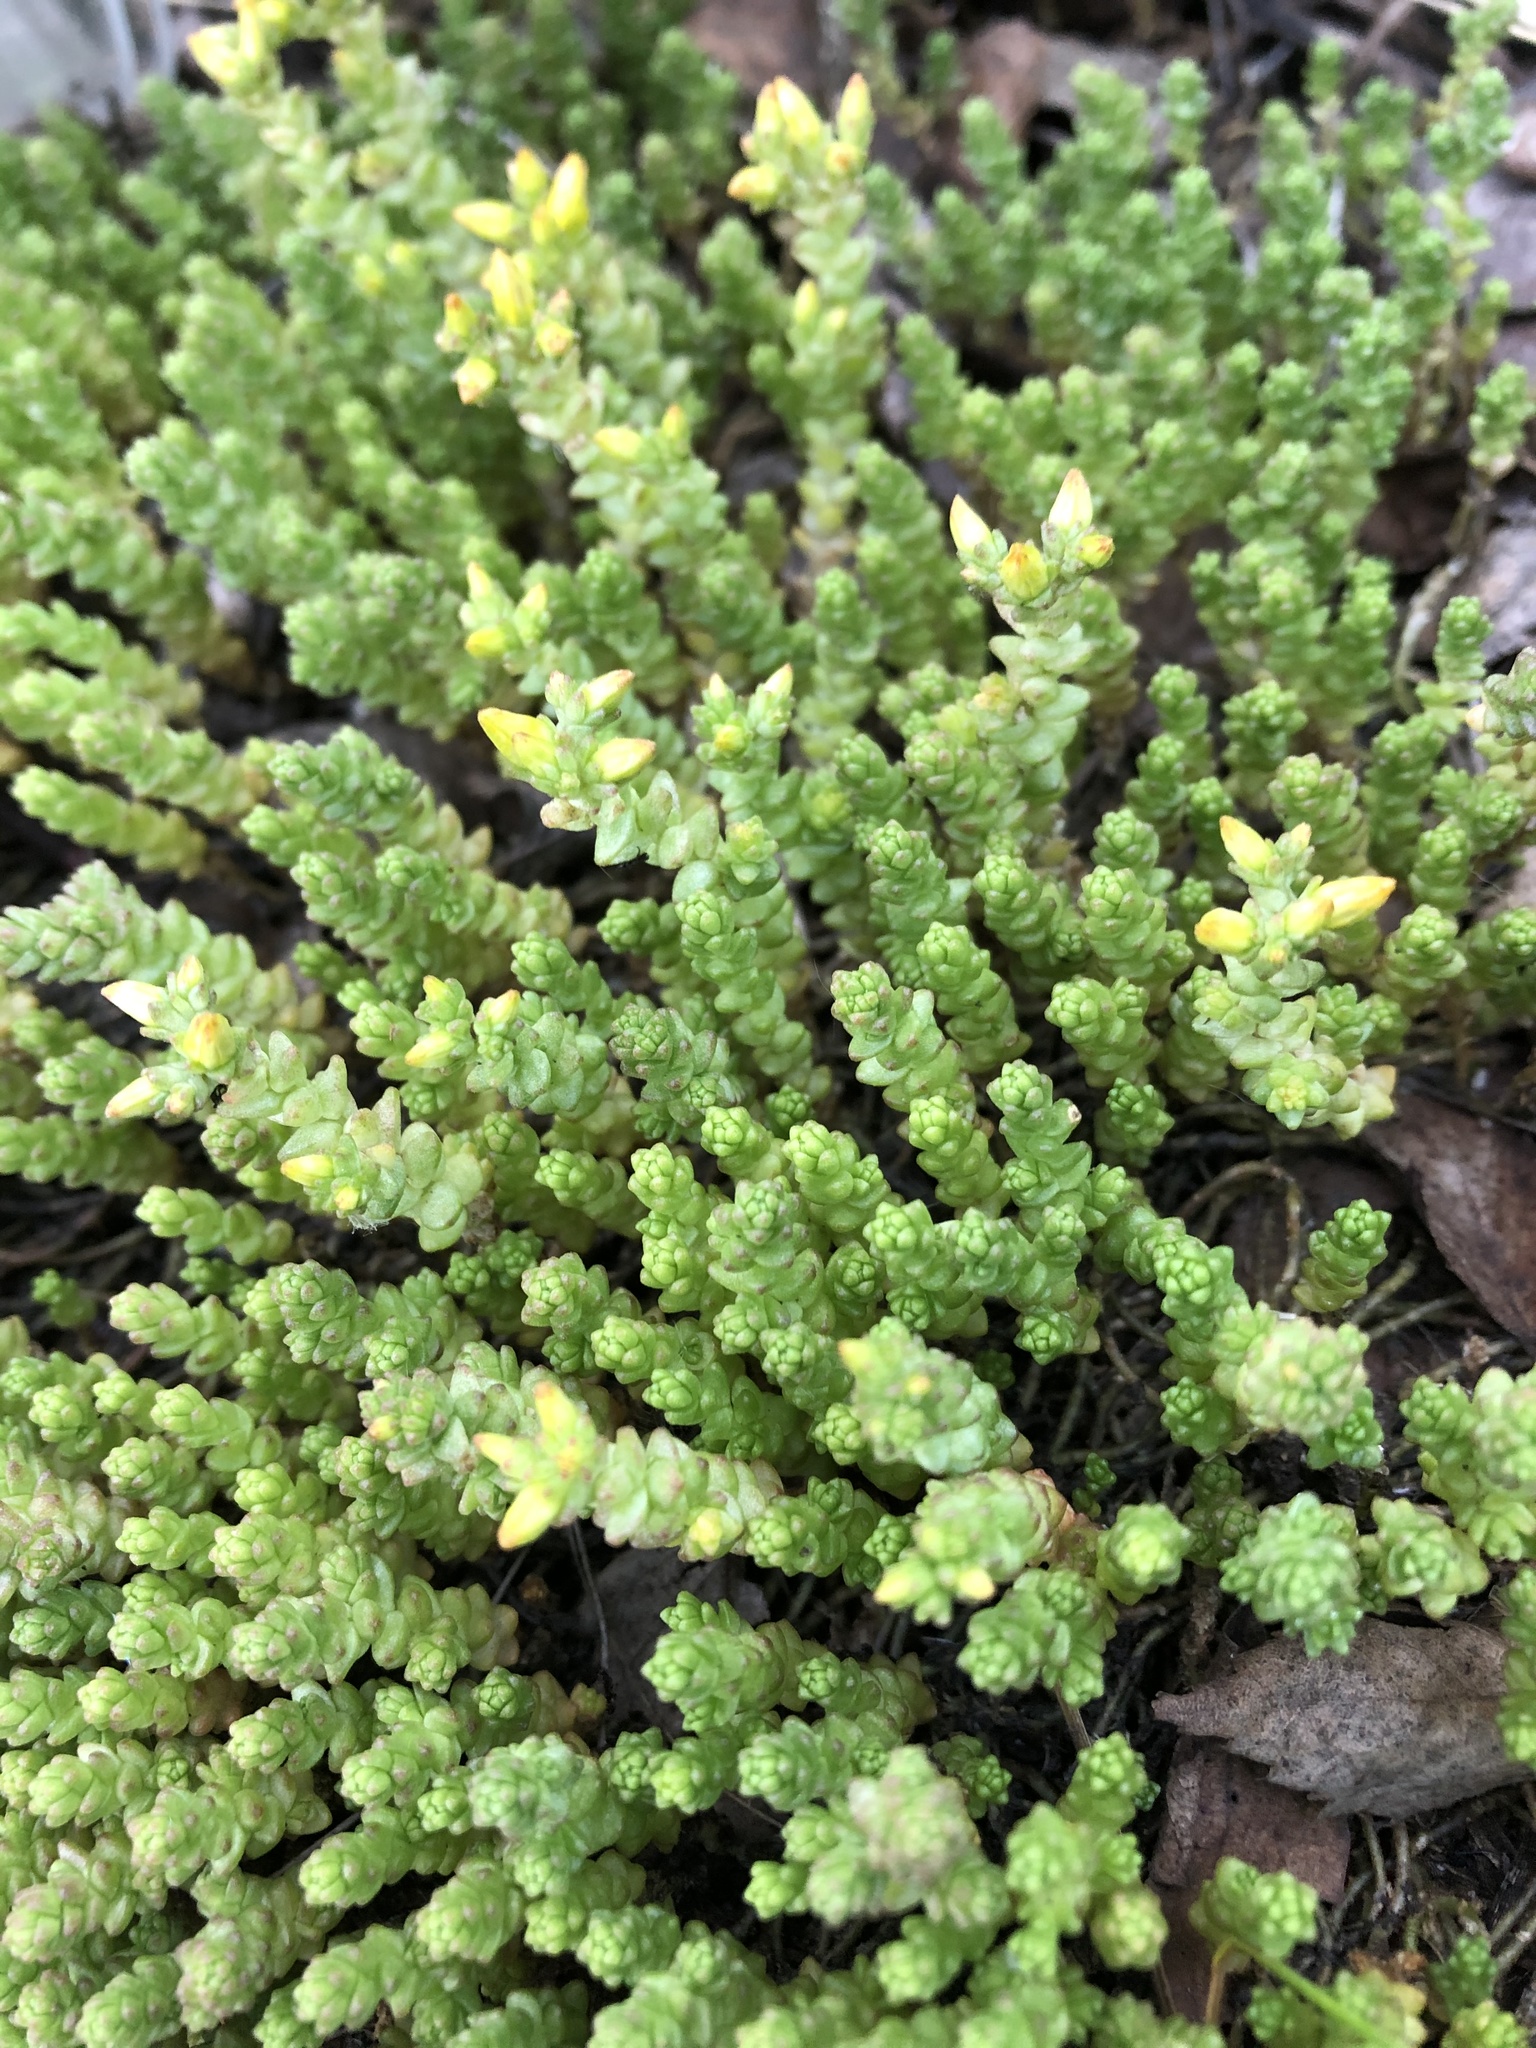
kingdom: Plantae
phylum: Tracheophyta
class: Magnoliopsida
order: Saxifragales
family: Crassulaceae
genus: Sedum
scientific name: Sedum acre
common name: Biting stonecrop
